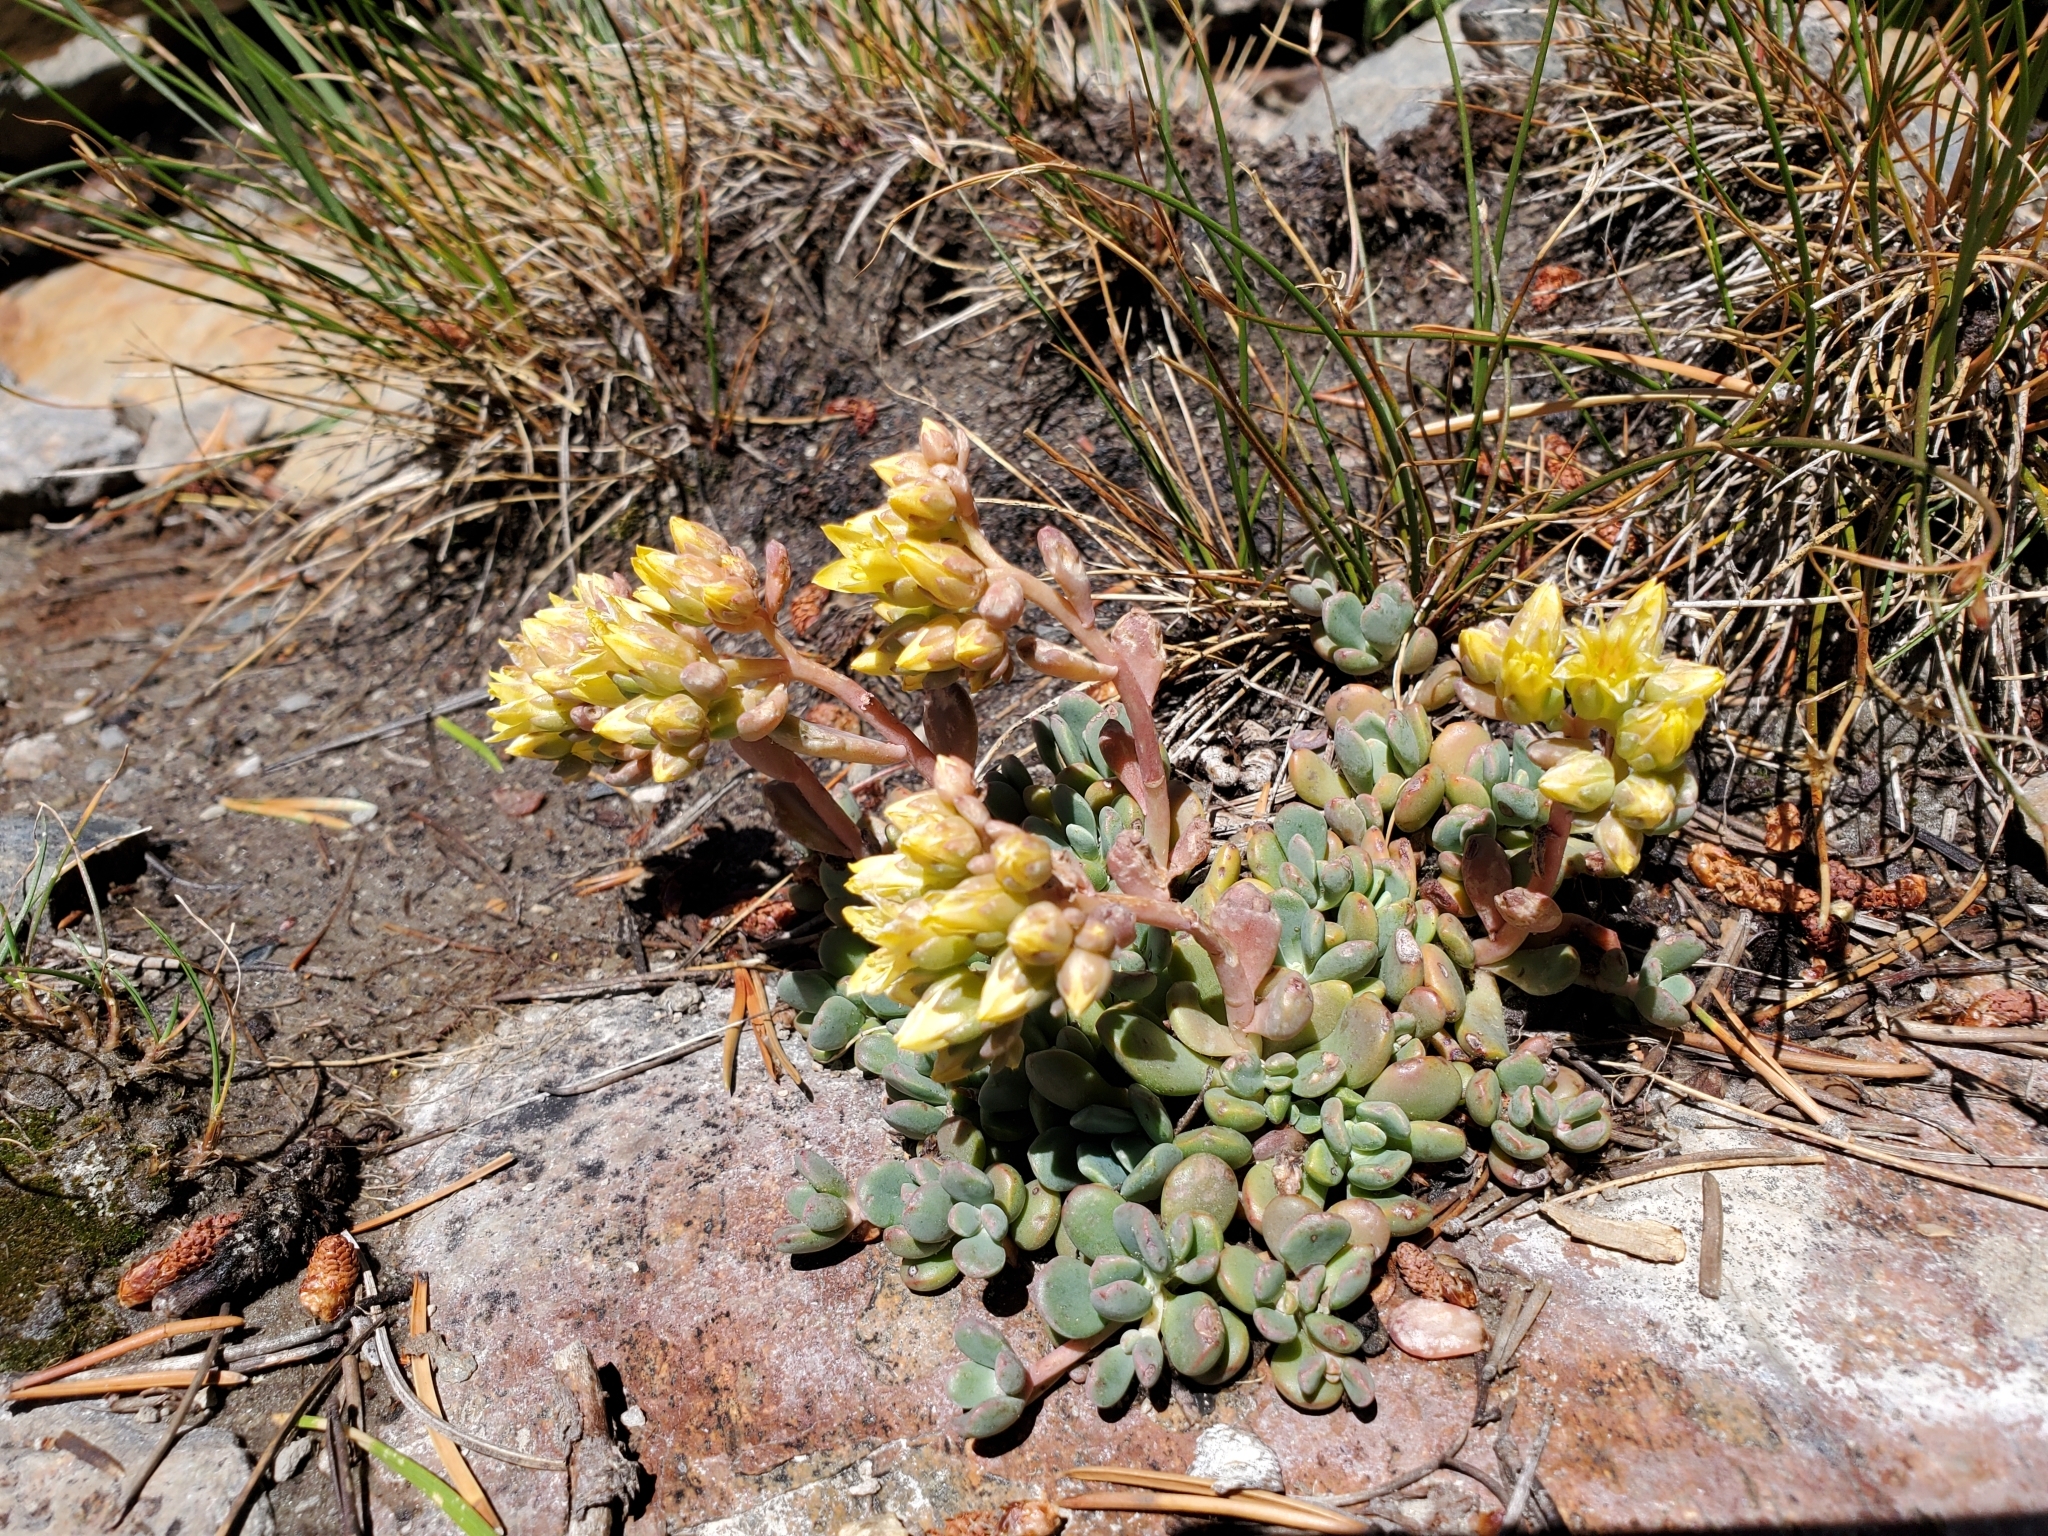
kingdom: Plantae
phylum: Tracheophyta
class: Magnoliopsida
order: Saxifragales
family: Crassulaceae
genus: Sedum
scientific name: Sedum obtusatum
